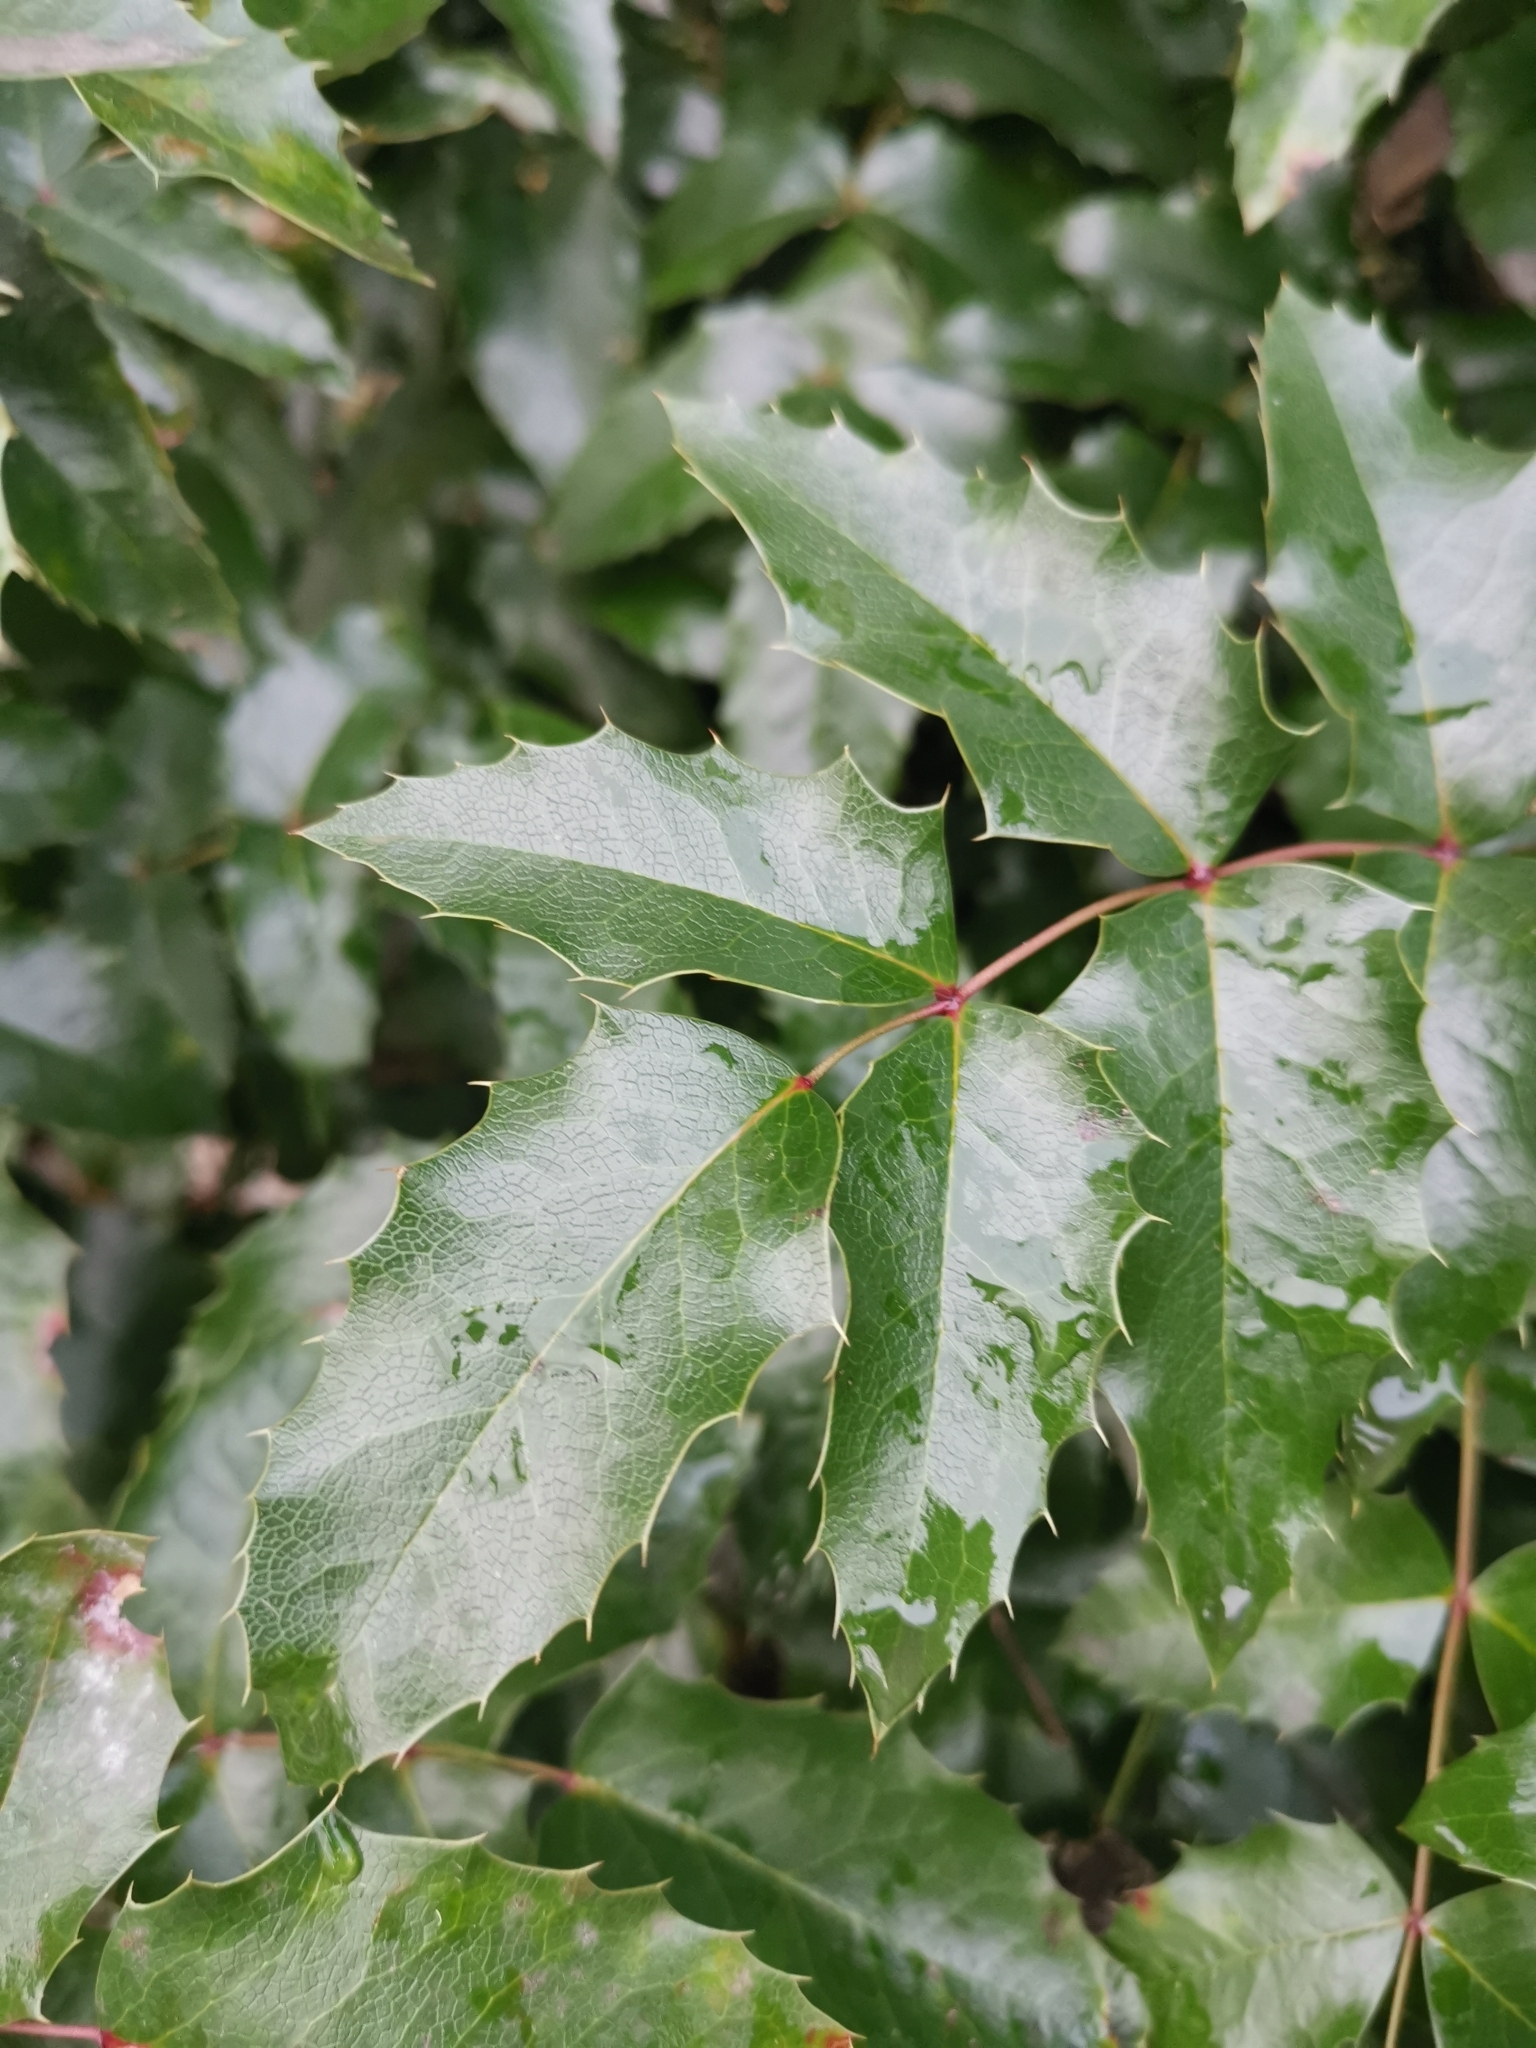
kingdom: Plantae
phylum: Tracheophyta
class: Magnoliopsida
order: Ranunculales
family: Berberidaceae
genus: Mahonia
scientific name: Mahonia aquifolium
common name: Oregon-grape
